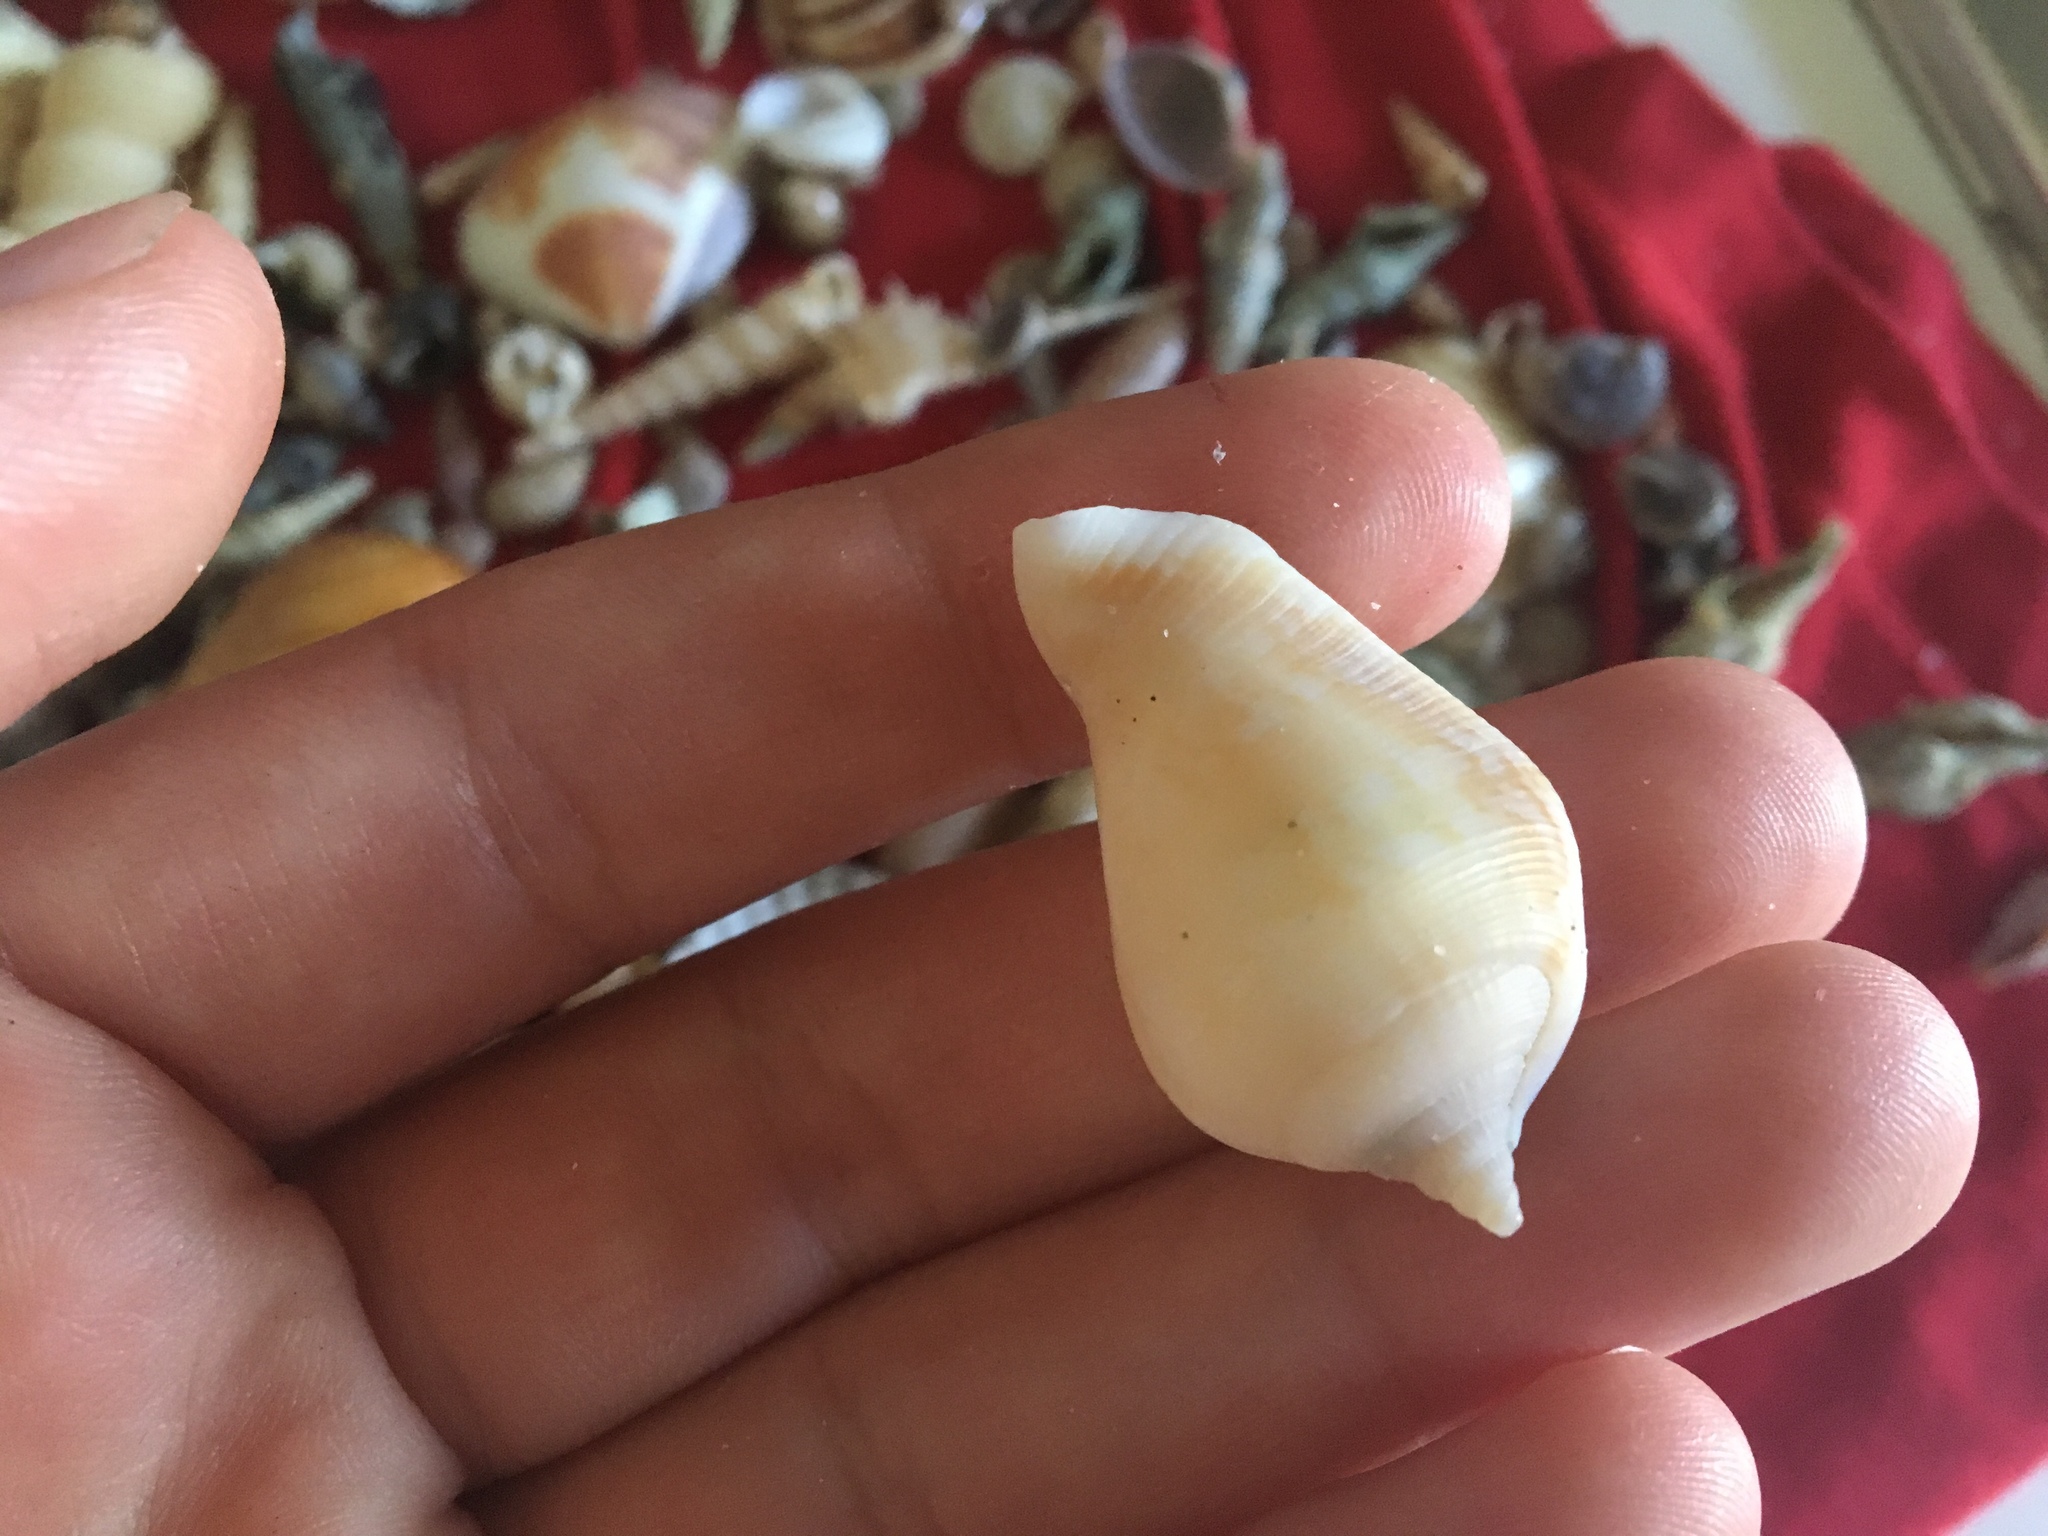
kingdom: Animalia
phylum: Mollusca
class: Gastropoda
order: Littorinimorpha
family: Strombidae
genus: Neodilatilabrum
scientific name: Neodilatilabrum marginatum
